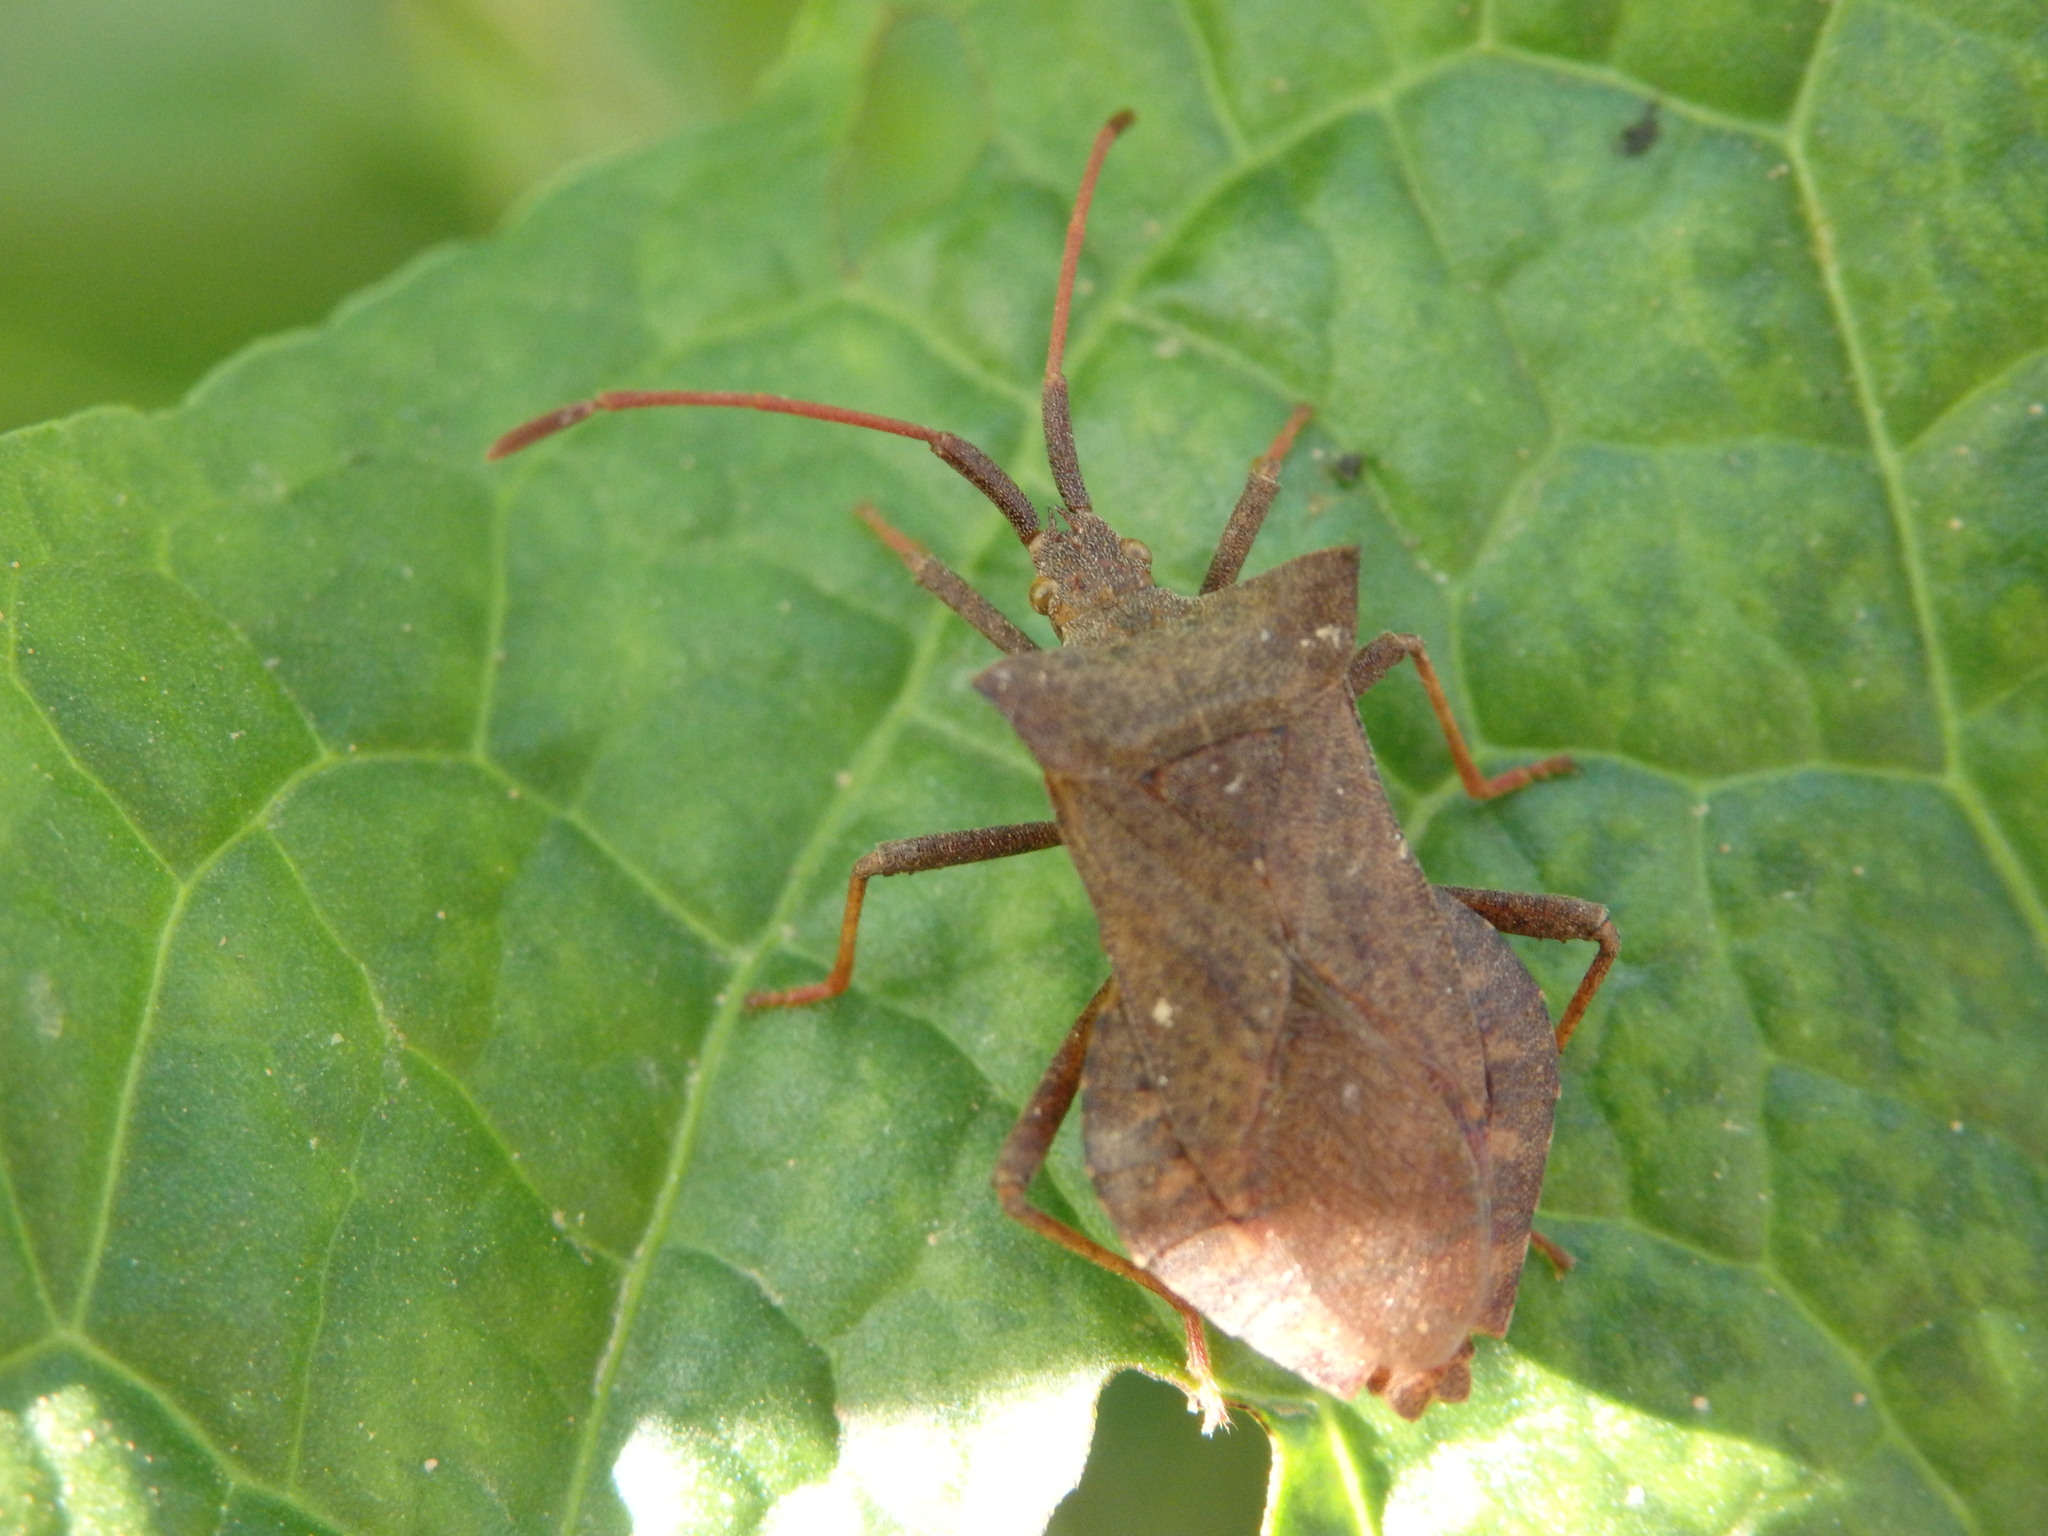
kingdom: Animalia
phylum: Arthropoda
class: Insecta
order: Hemiptera
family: Coreidae
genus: Coreus
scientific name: Coreus marginatus
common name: Dock bug
